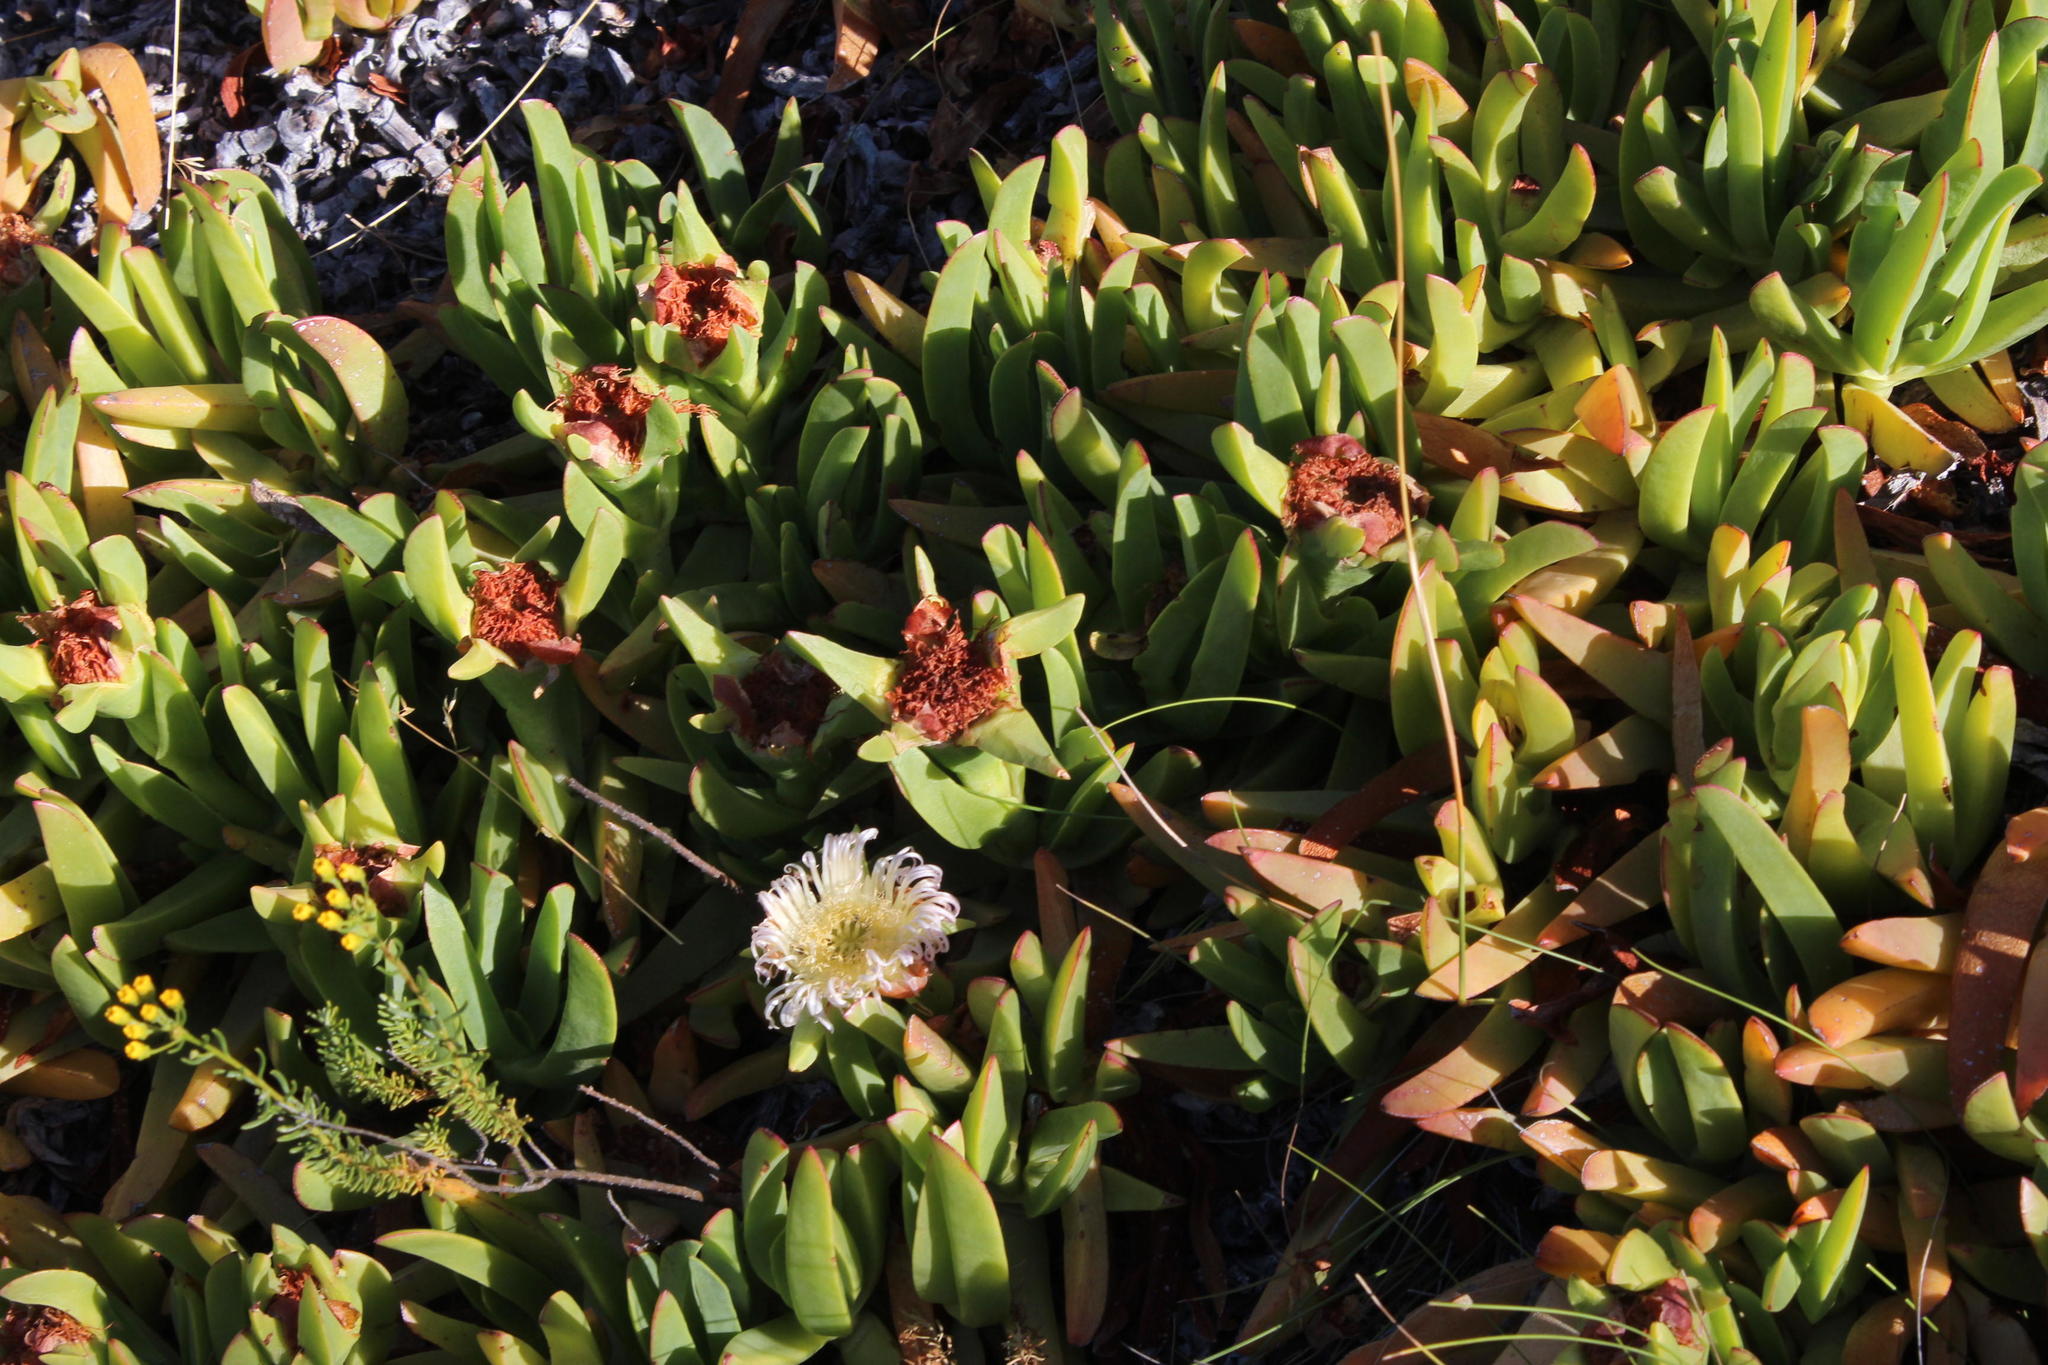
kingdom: Plantae
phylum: Tracheophyta
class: Magnoliopsida
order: Caryophyllales
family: Aizoaceae
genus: Carpobrotus
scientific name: Carpobrotus edulis
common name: Hottentot-fig
